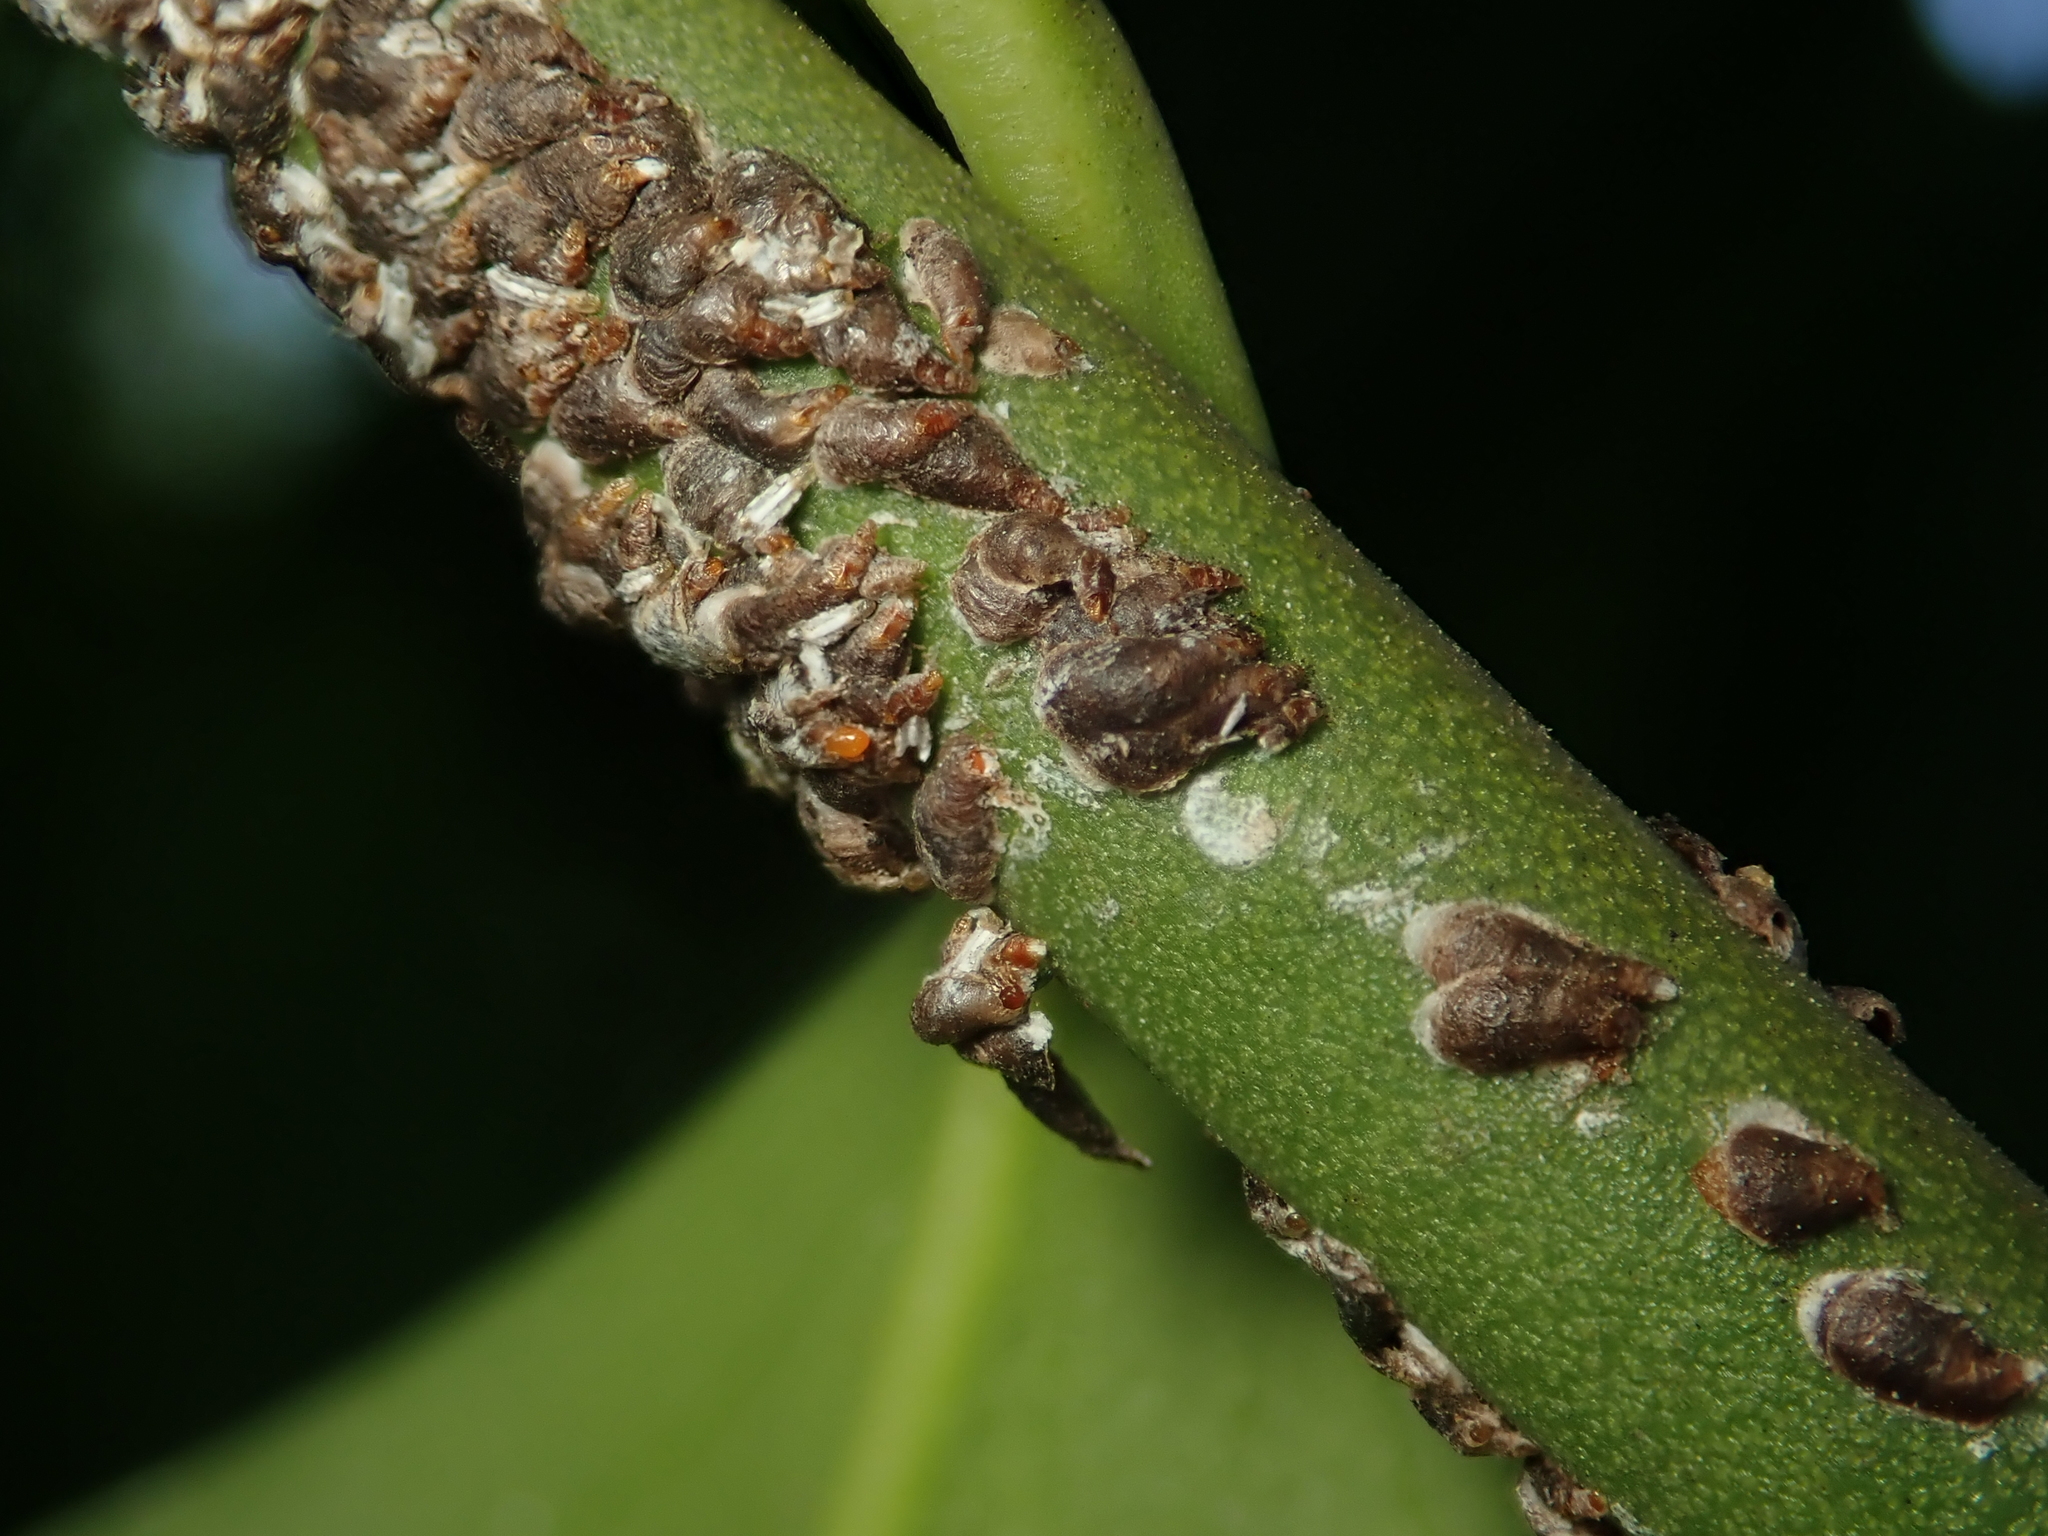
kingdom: Animalia
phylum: Arthropoda
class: Insecta
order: Hemiptera
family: Diaspididae
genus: Unaspis
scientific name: Unaspis euonymi
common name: Euonymus scale
